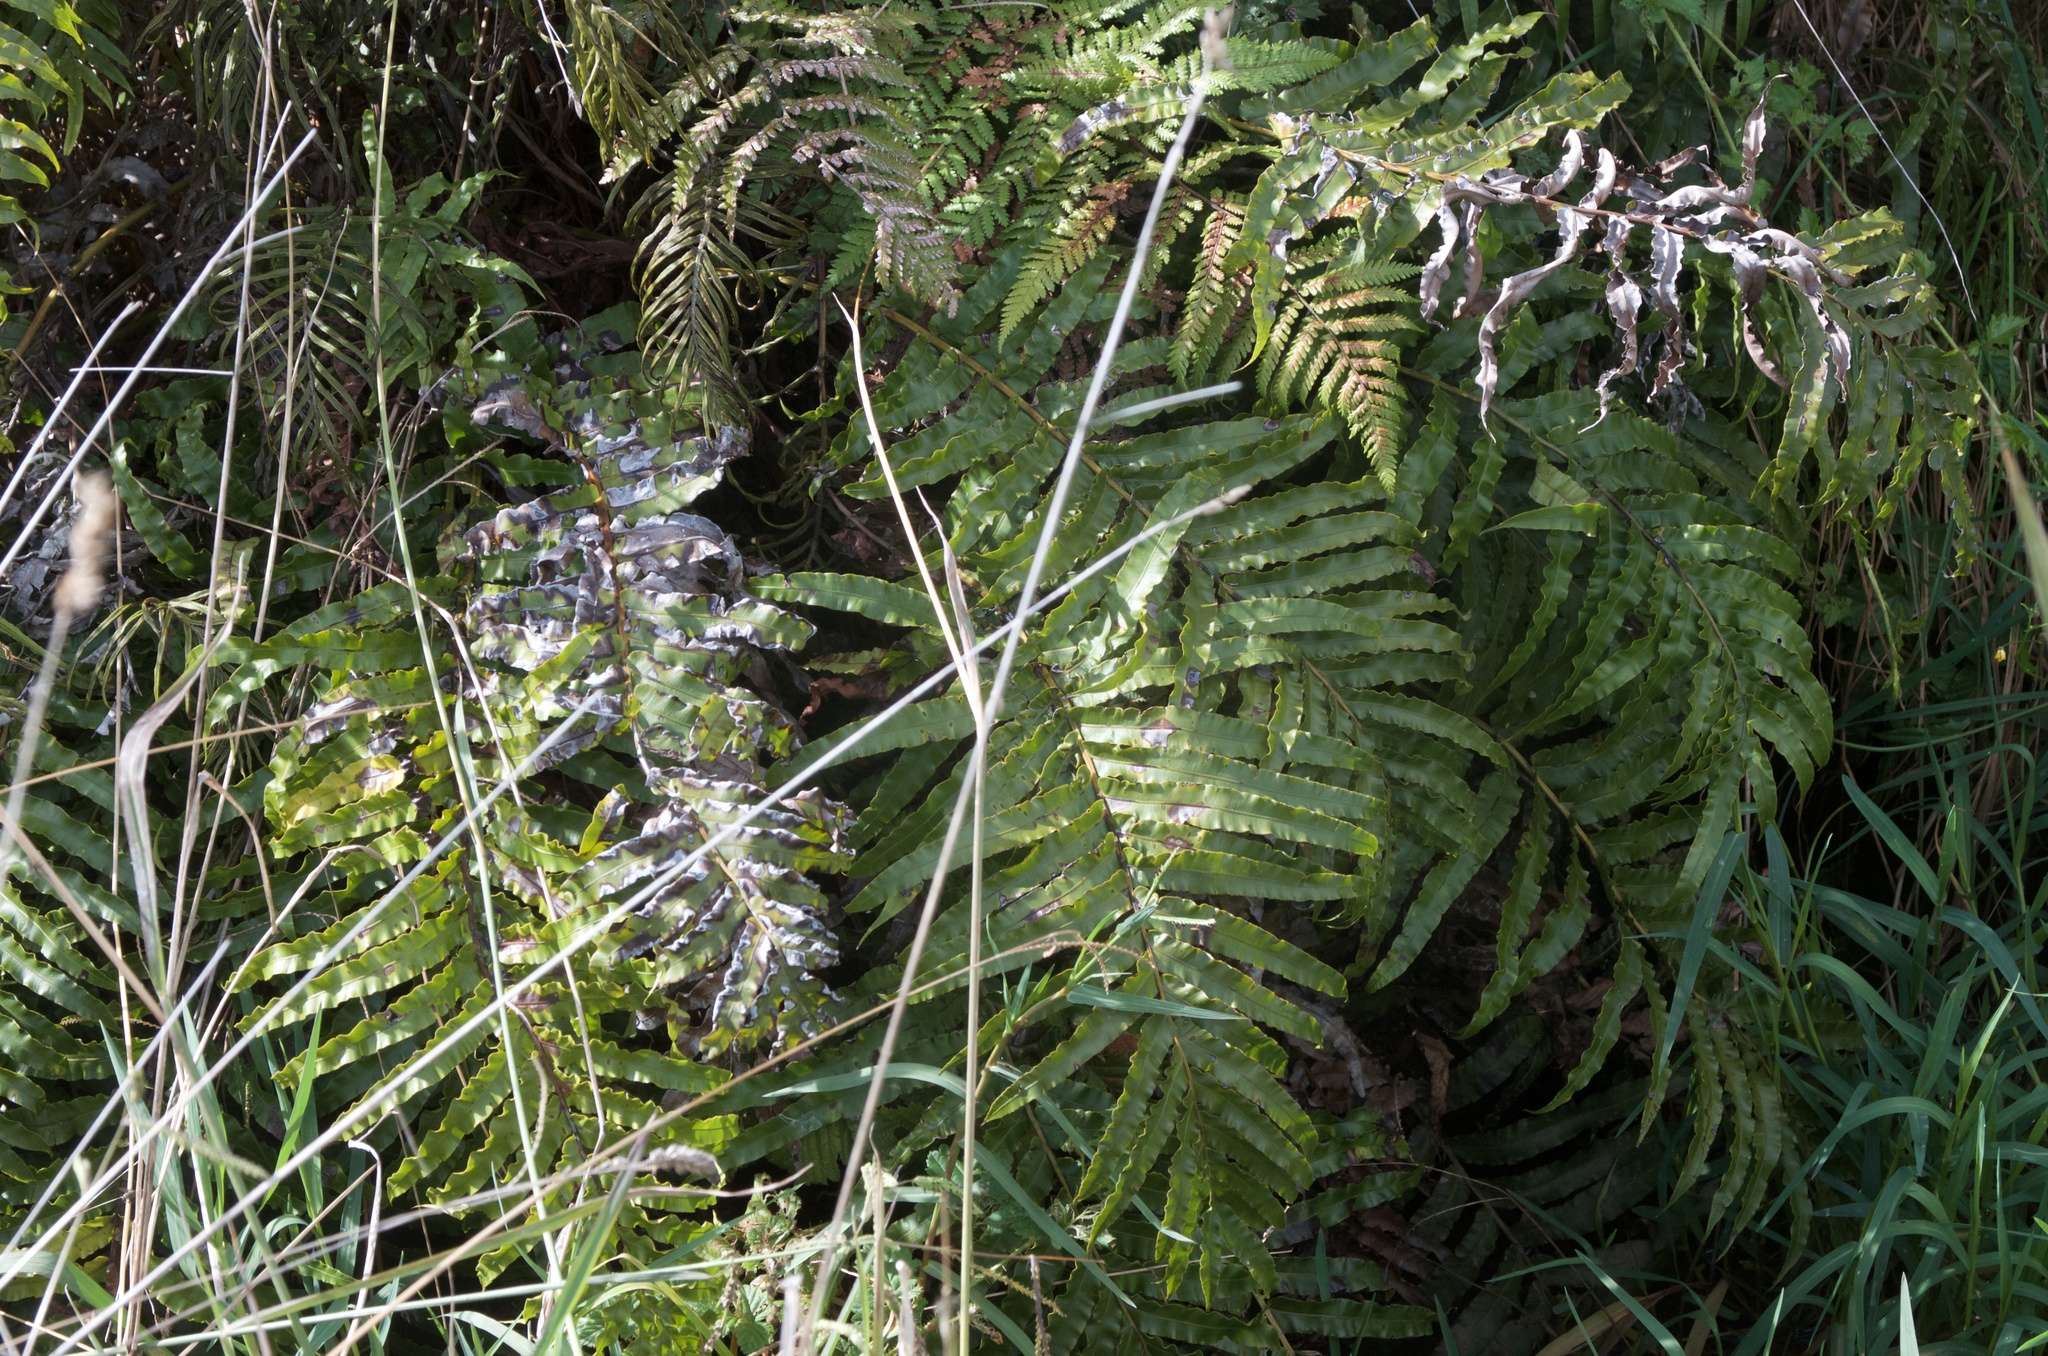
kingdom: Plantae
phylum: Tracheophyta
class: Polypodiopsida
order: Polypodiales
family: Blechnaceae
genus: Parablechnum
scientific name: Parablechnum novae-zelandiae
